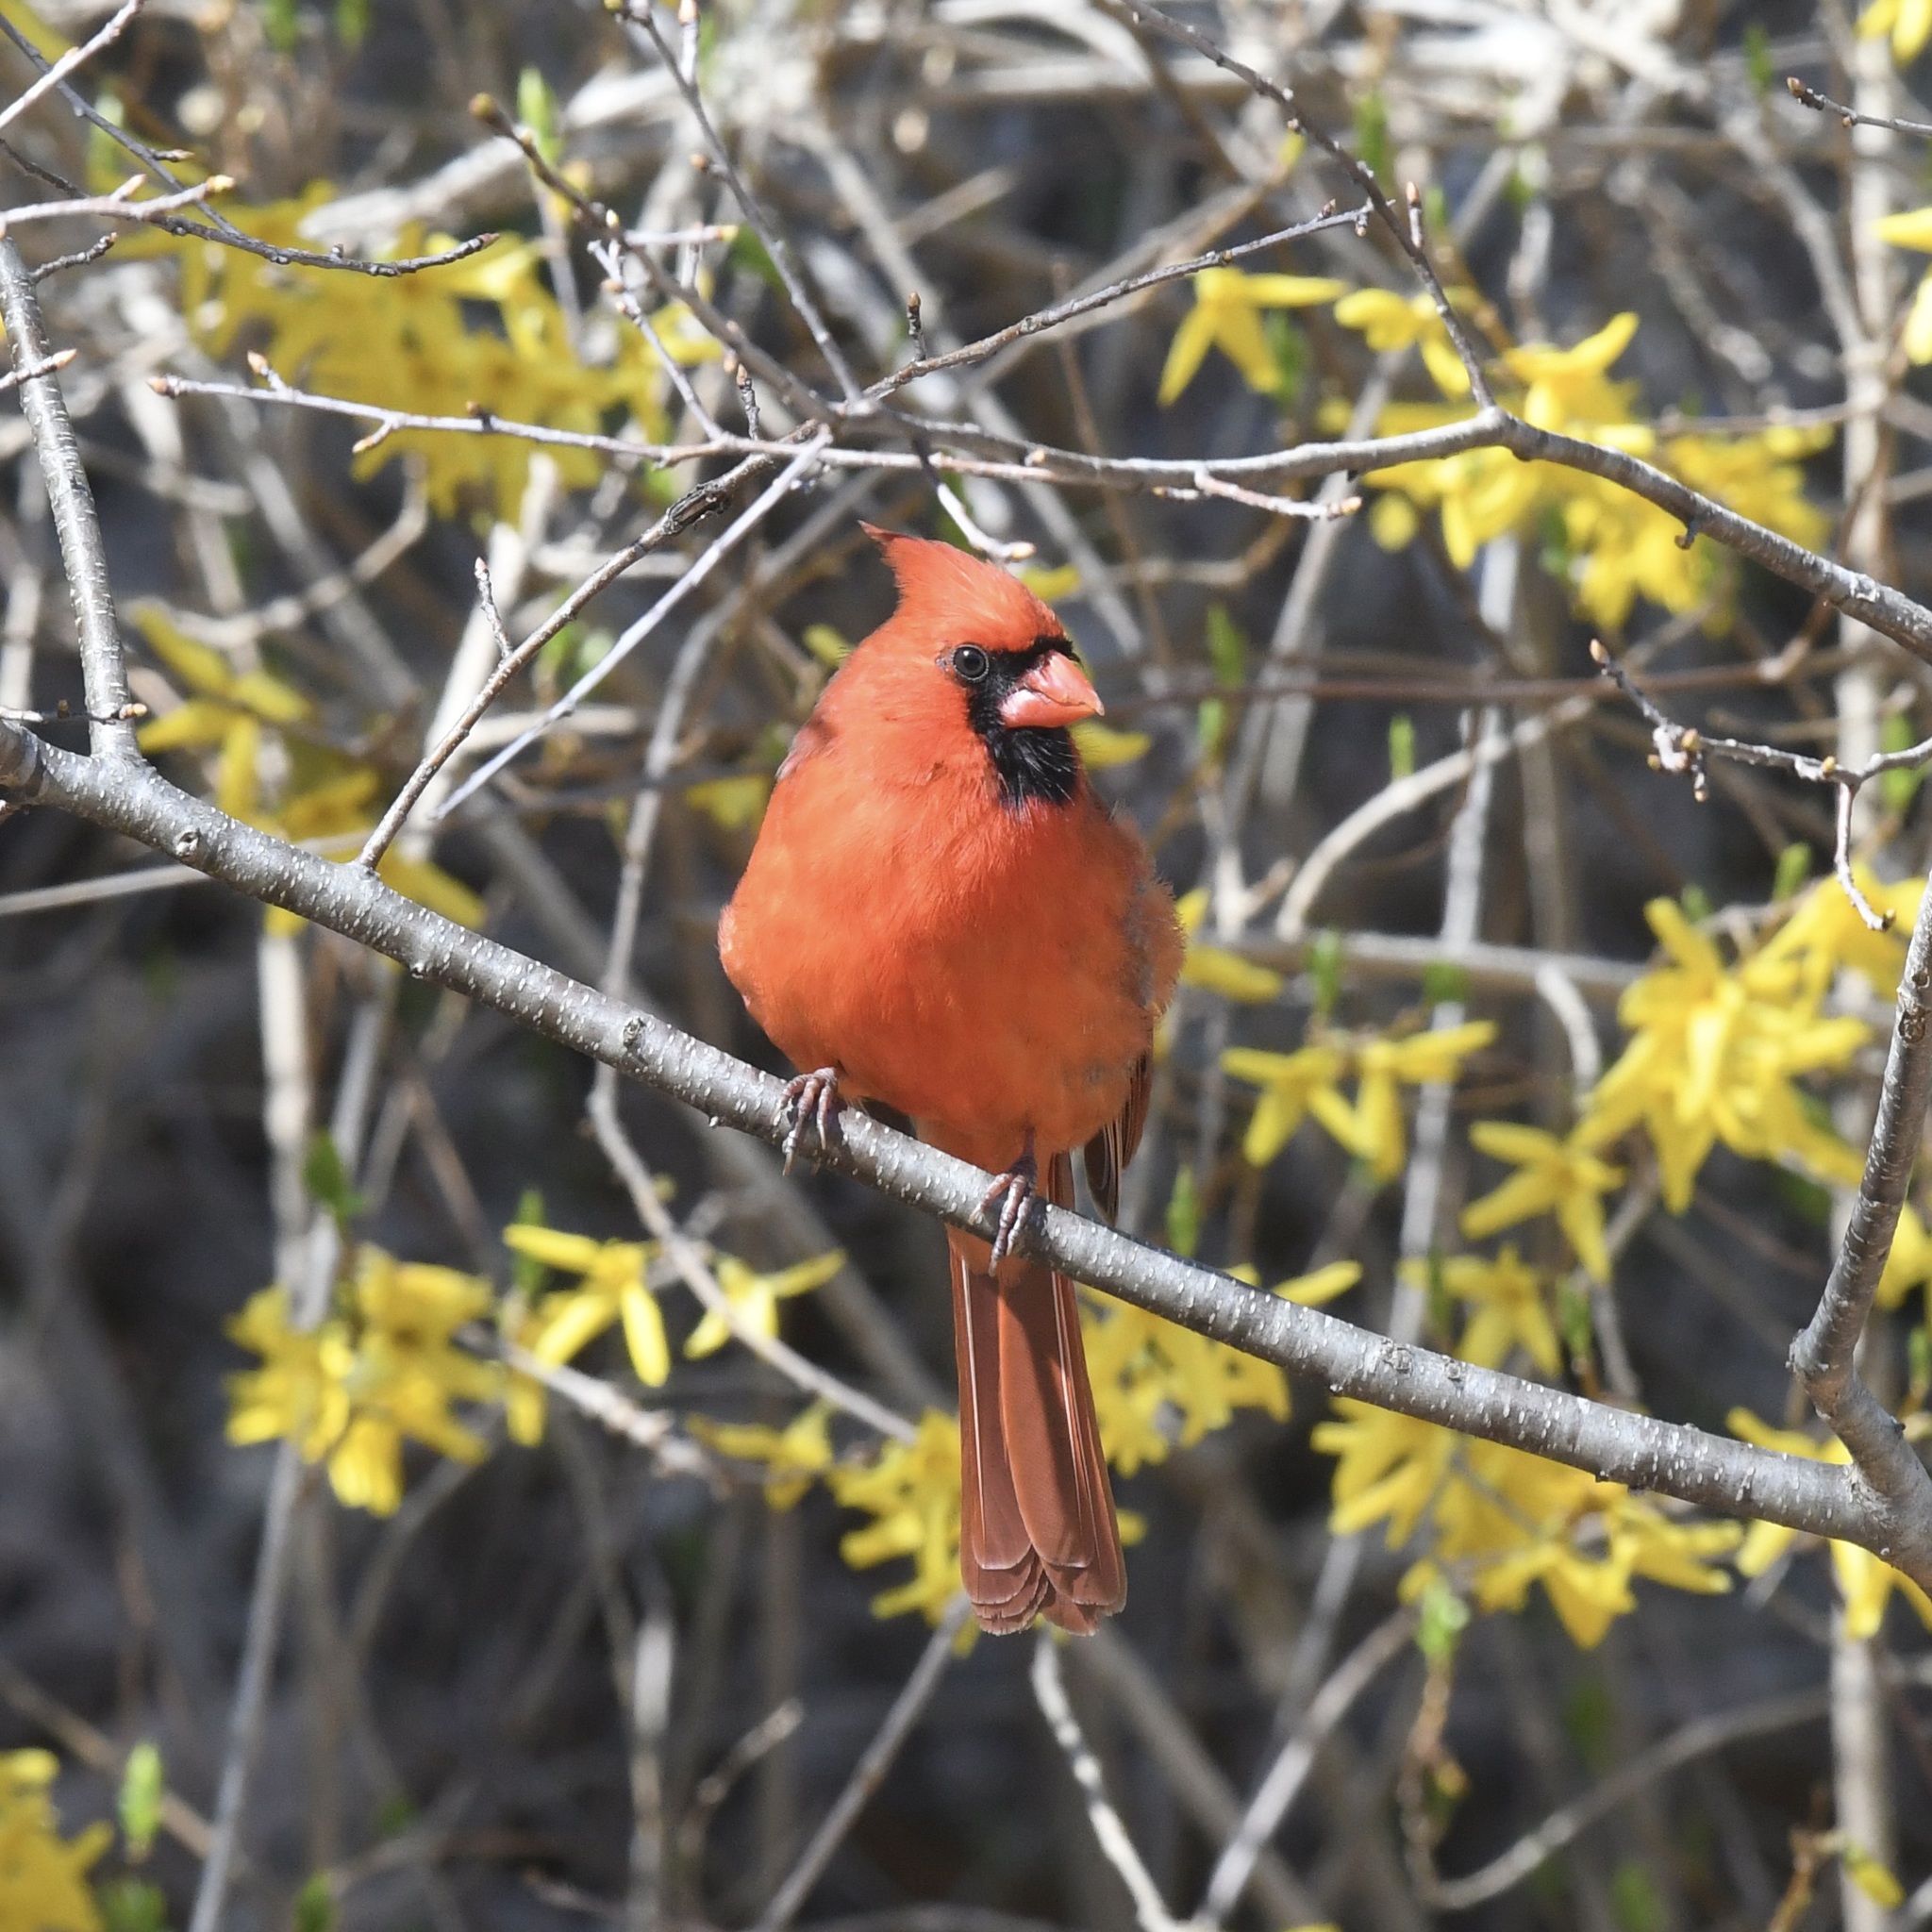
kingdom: Animalia
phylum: Chordata
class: Aves
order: Passeriformes
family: Cardinalidae
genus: Cardinalis
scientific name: Cardinalis cardinalis
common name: Northern cardinal
